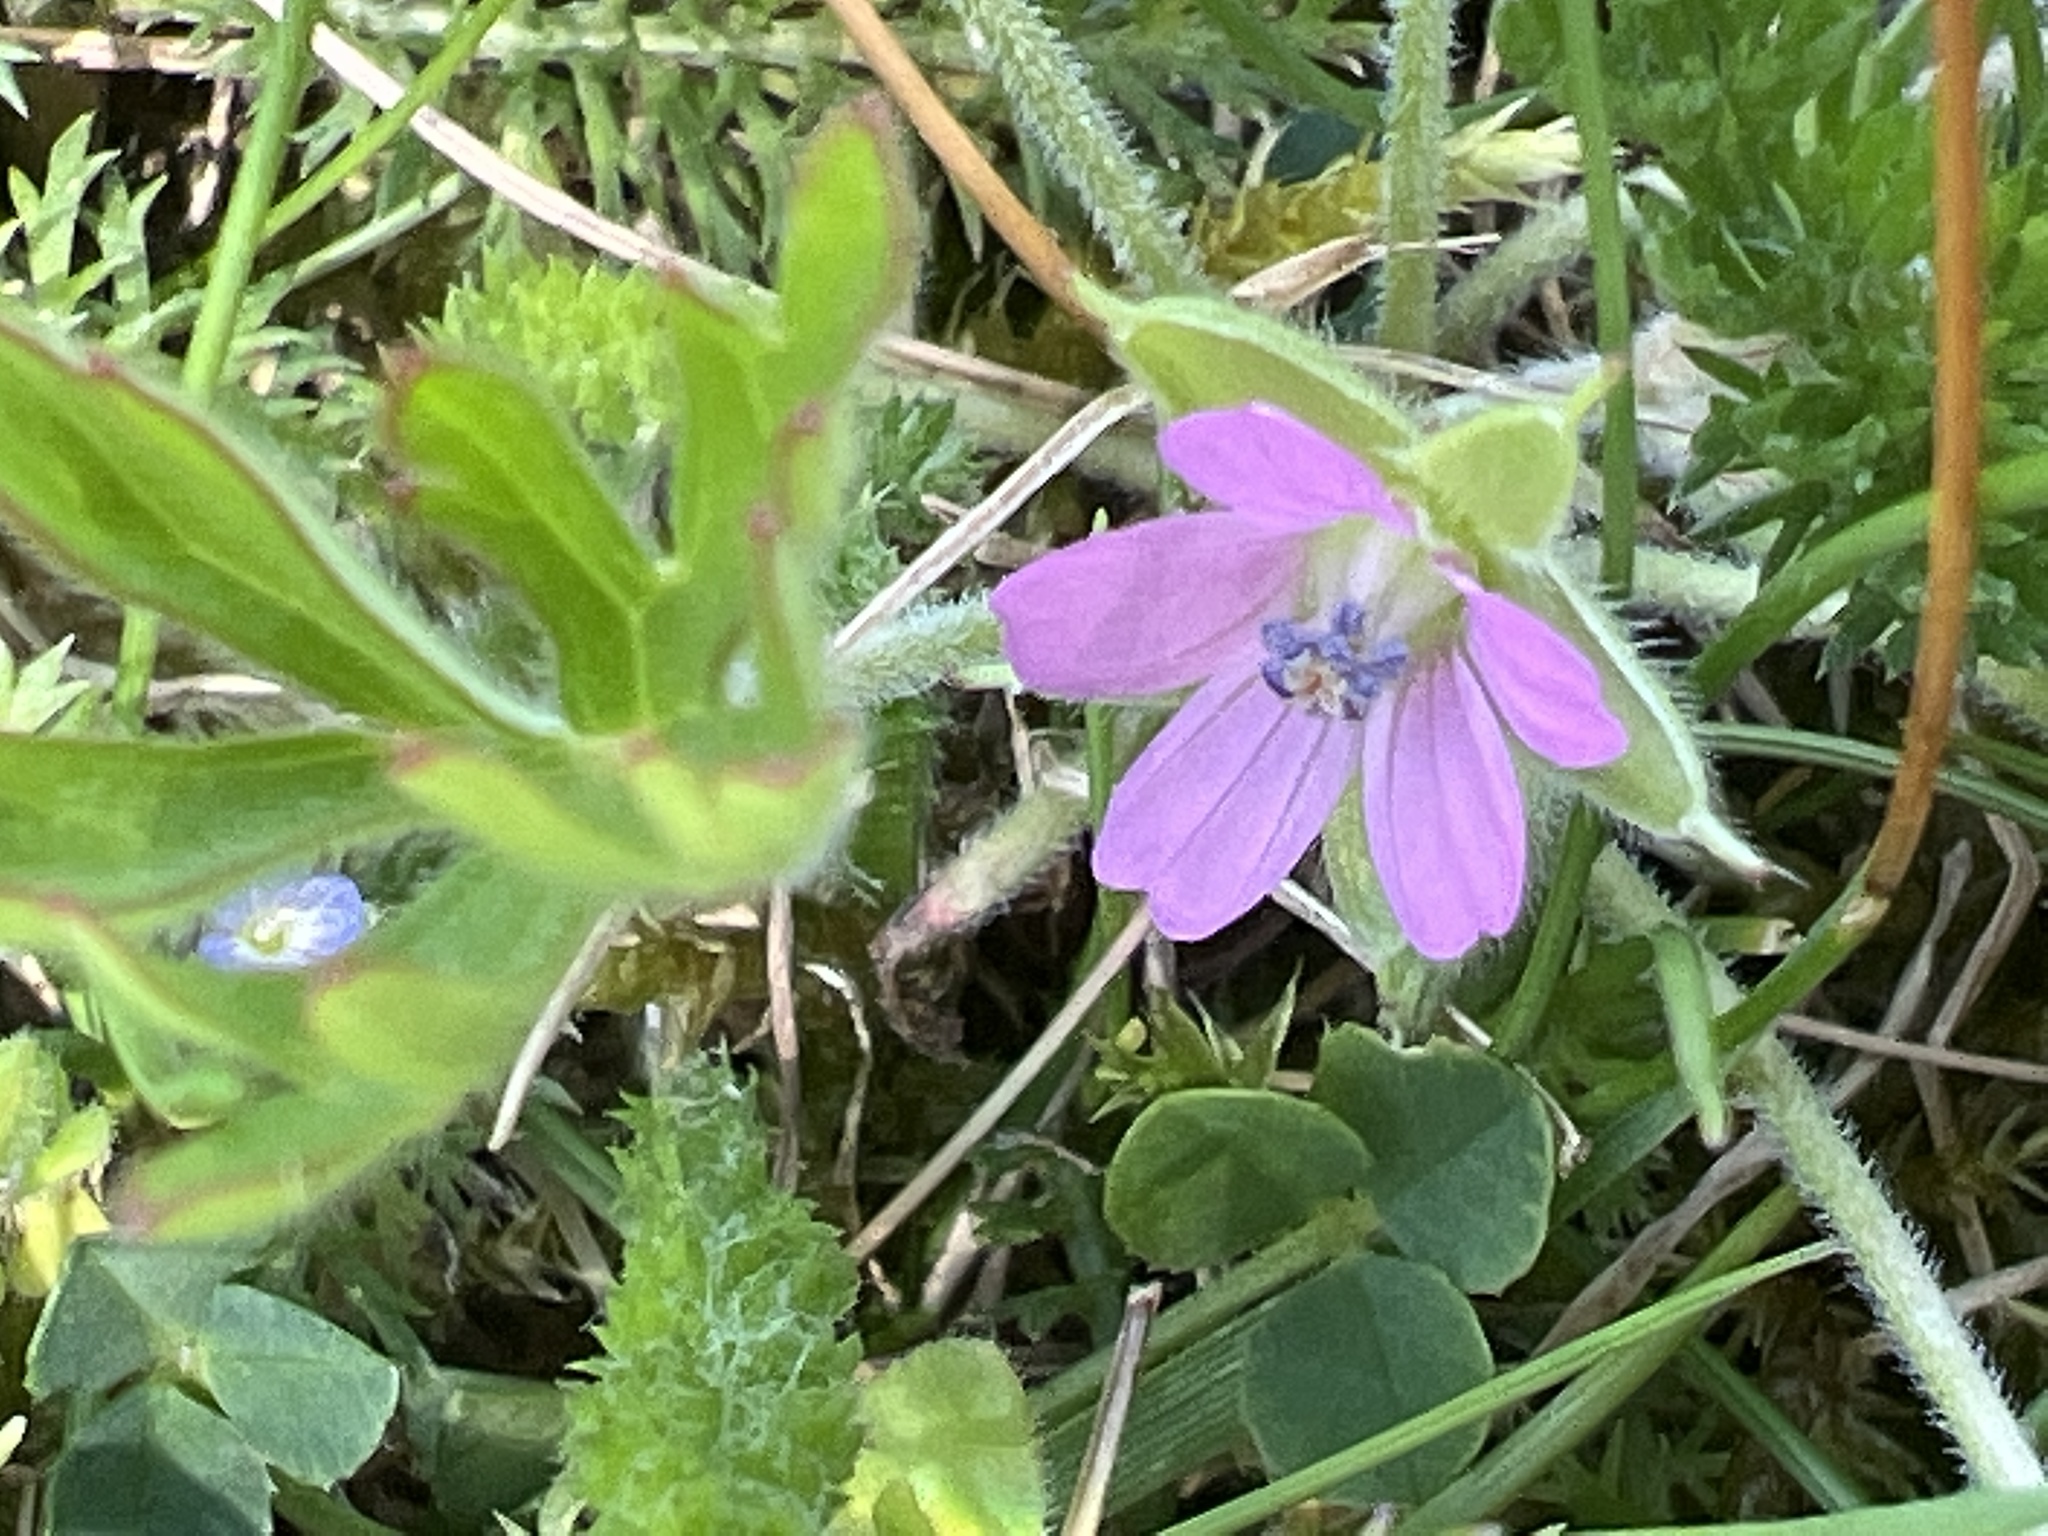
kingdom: Plantae
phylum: Tracheophyta
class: Magnoliopsida
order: Geraniales
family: Geraniaceae
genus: Geranium
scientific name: Geranium dissectum
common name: Cut-leaved crane's-bill
